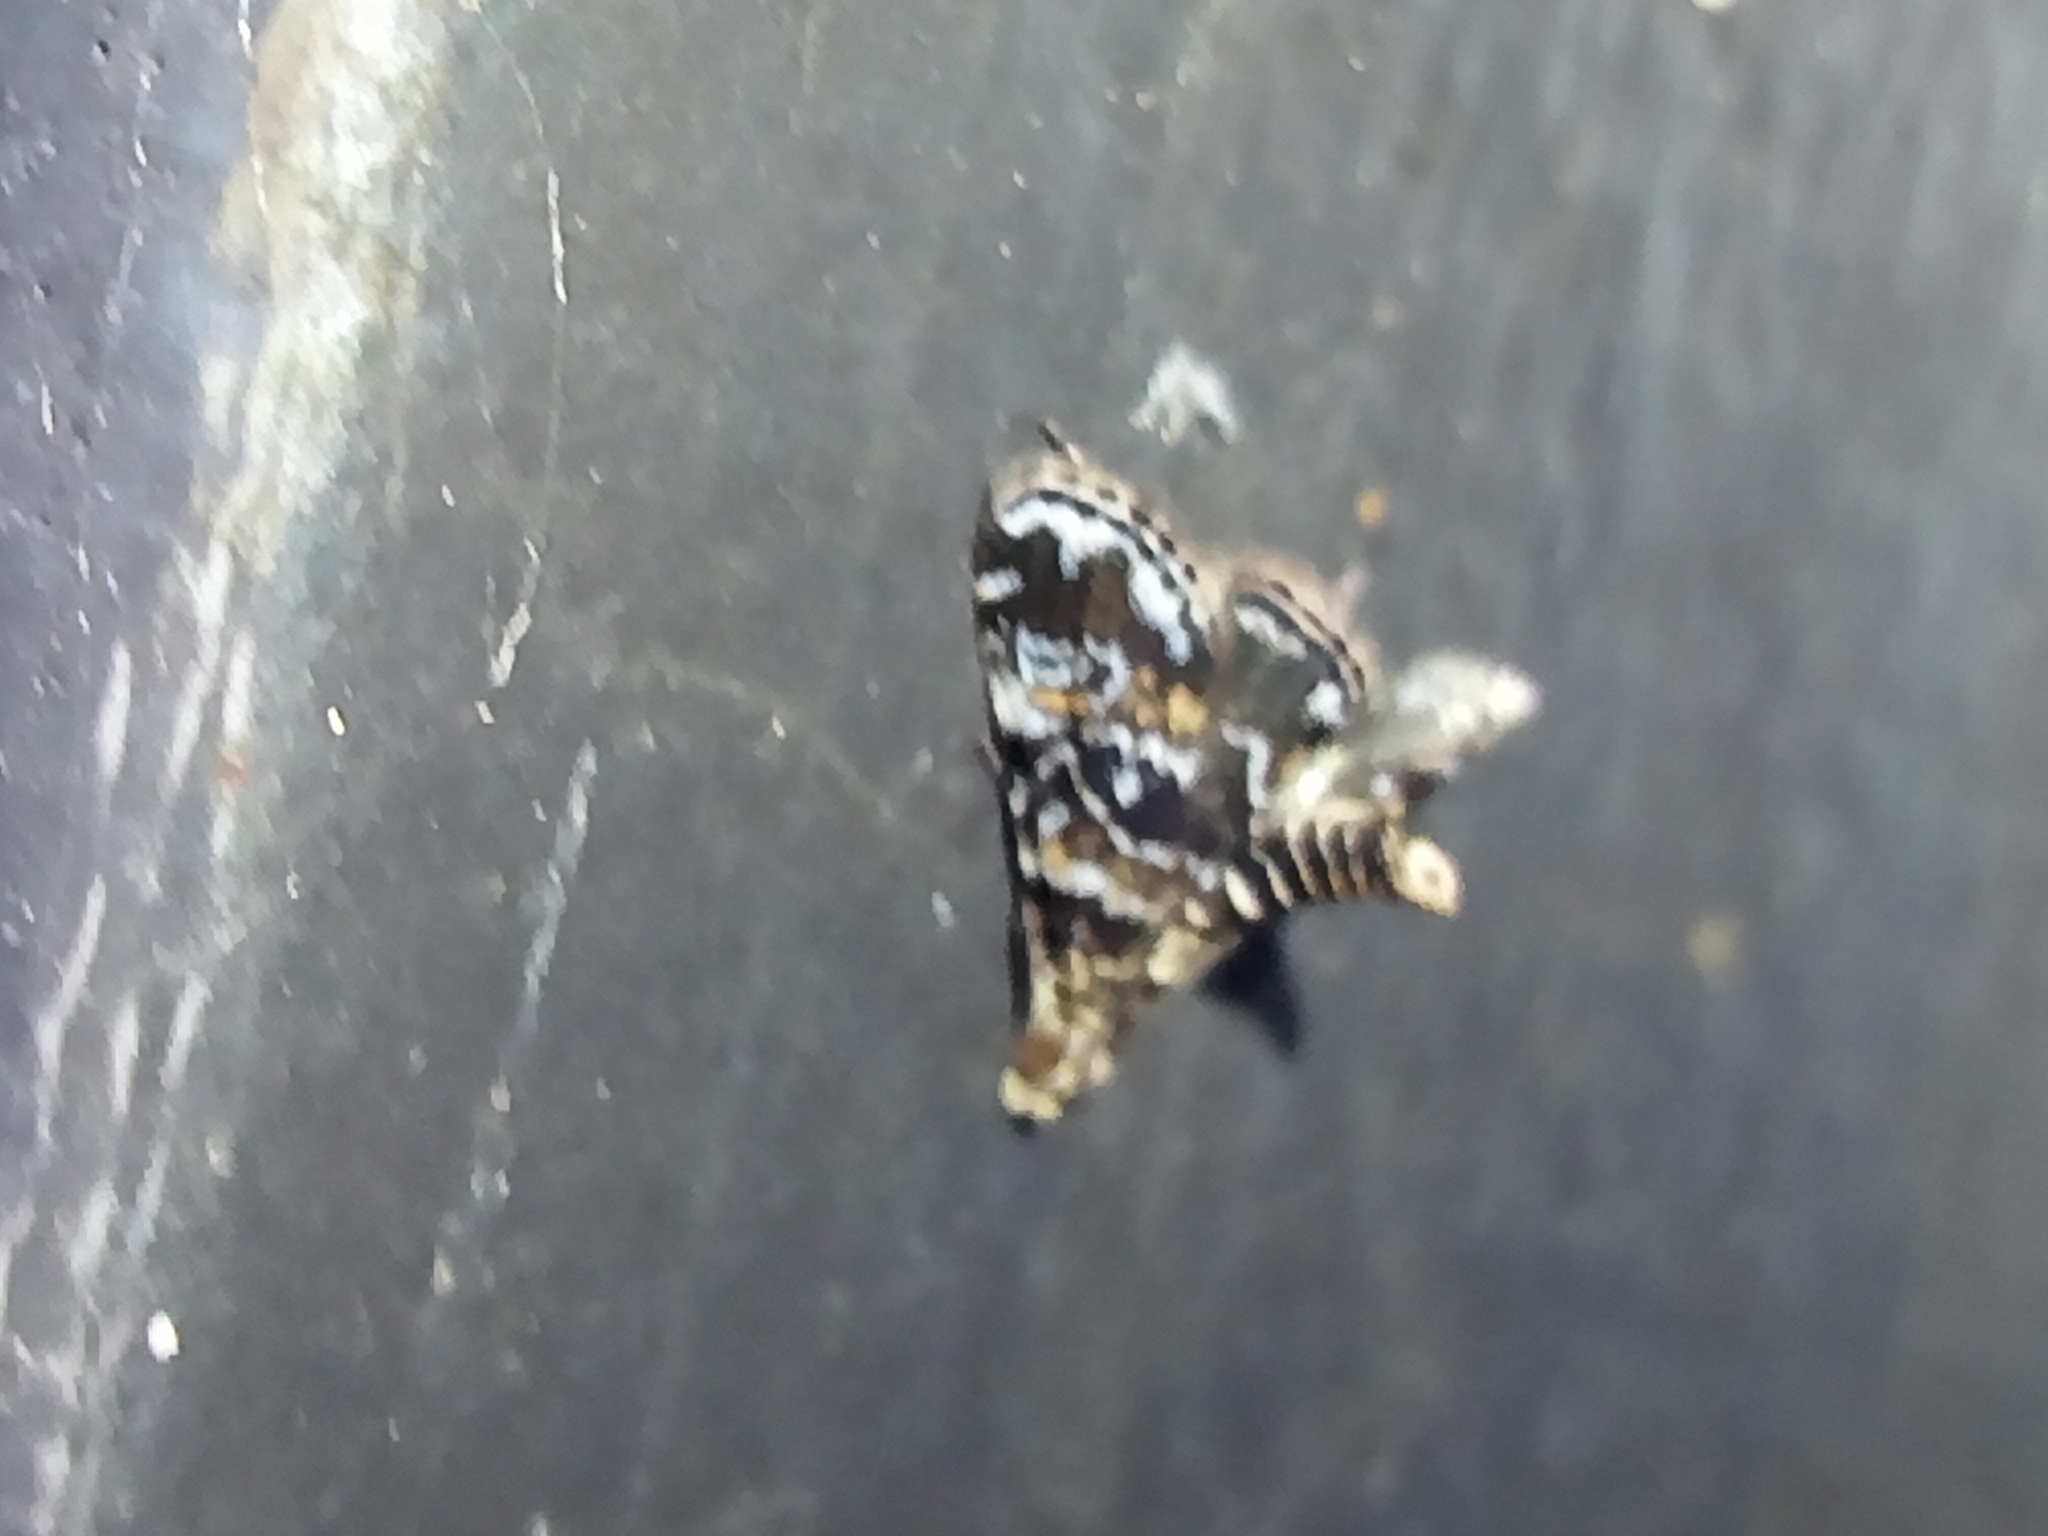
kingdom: Animalia
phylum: Arthropoda
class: Insecta
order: Lepidoptera
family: Crambidae
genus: Elophila
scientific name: Elophila obliteralis
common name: Waterlily leafcutter moth
